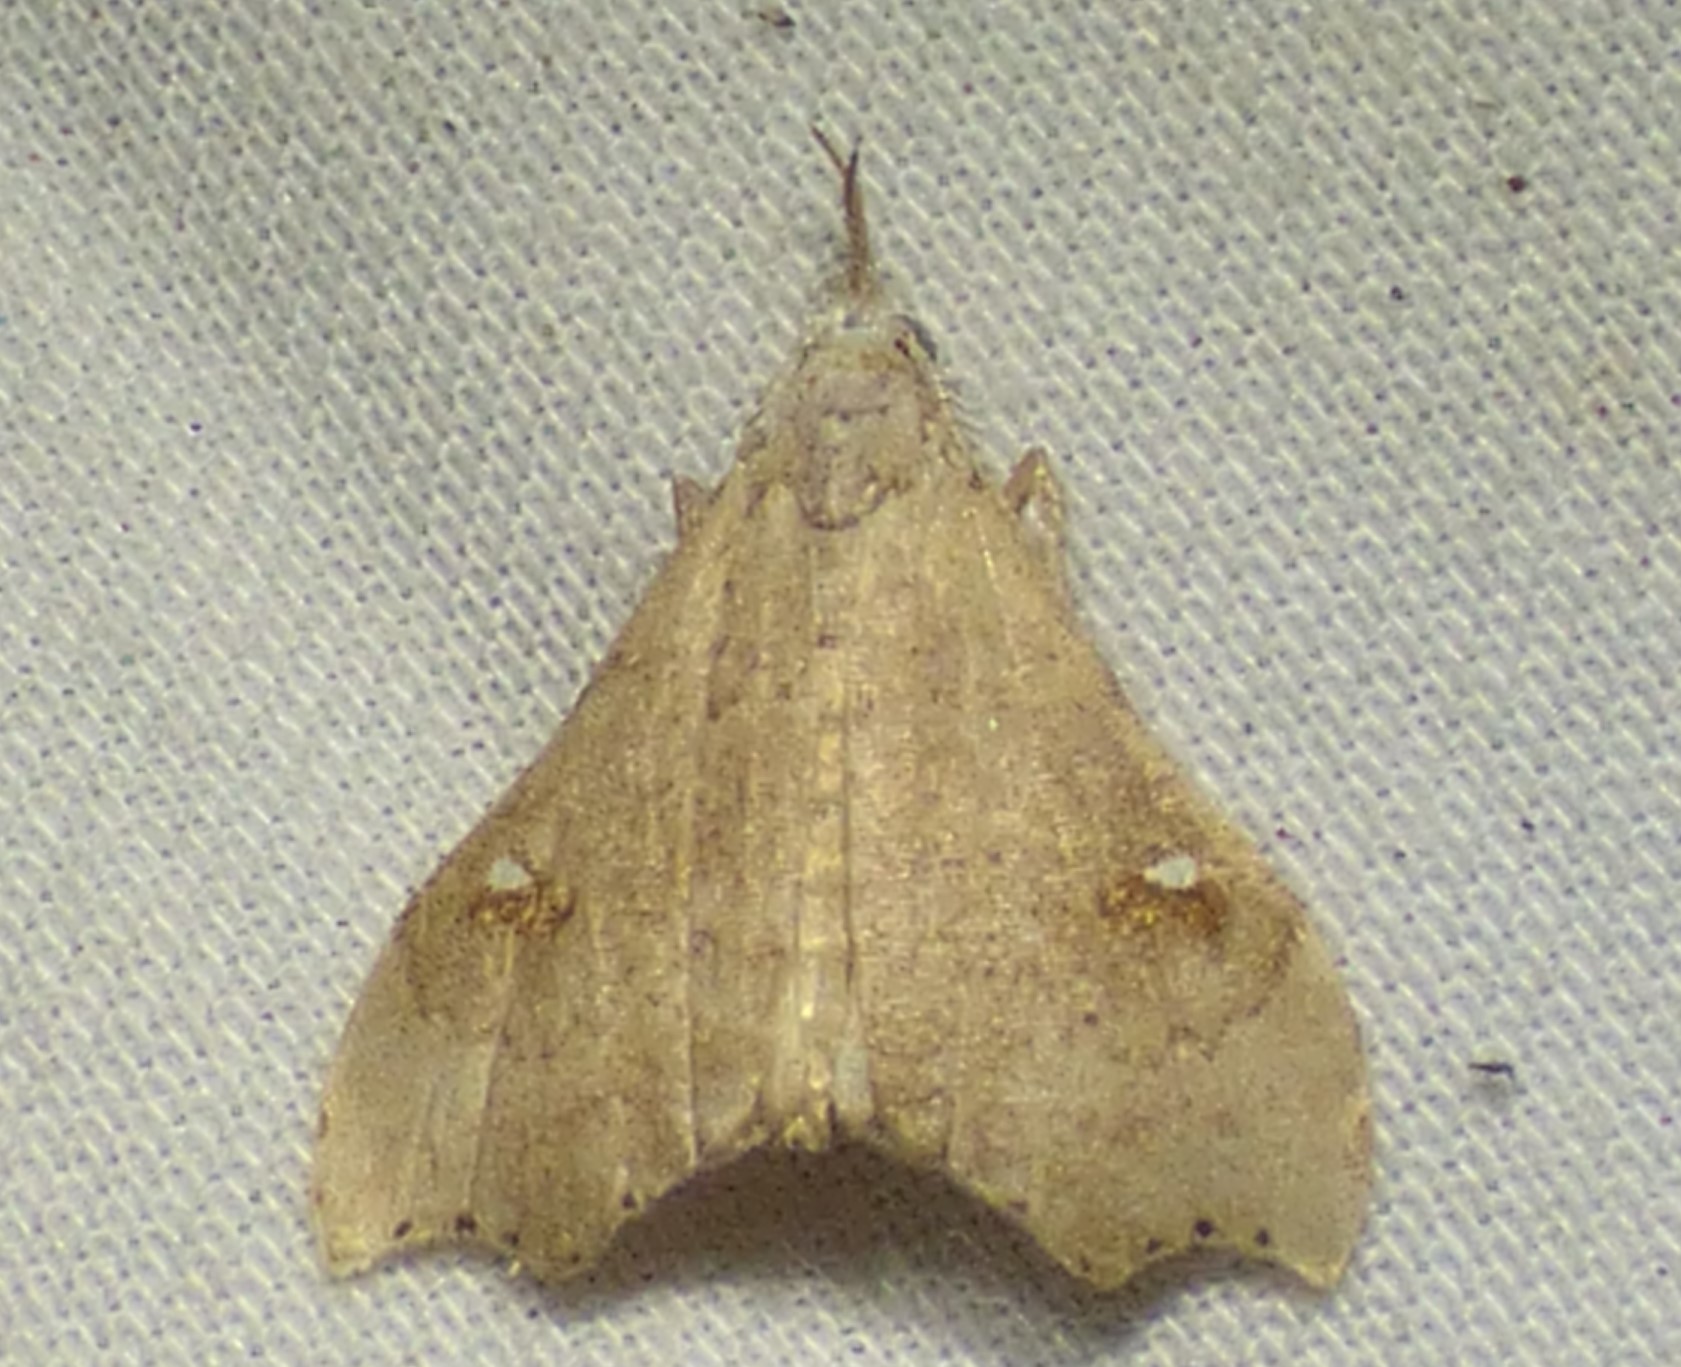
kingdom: Animalia
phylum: Arthropoda
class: Insecta
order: Lepidoptera
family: Erebidae
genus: Redectis
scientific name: Redectis vitrea
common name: White-spotted redectis
